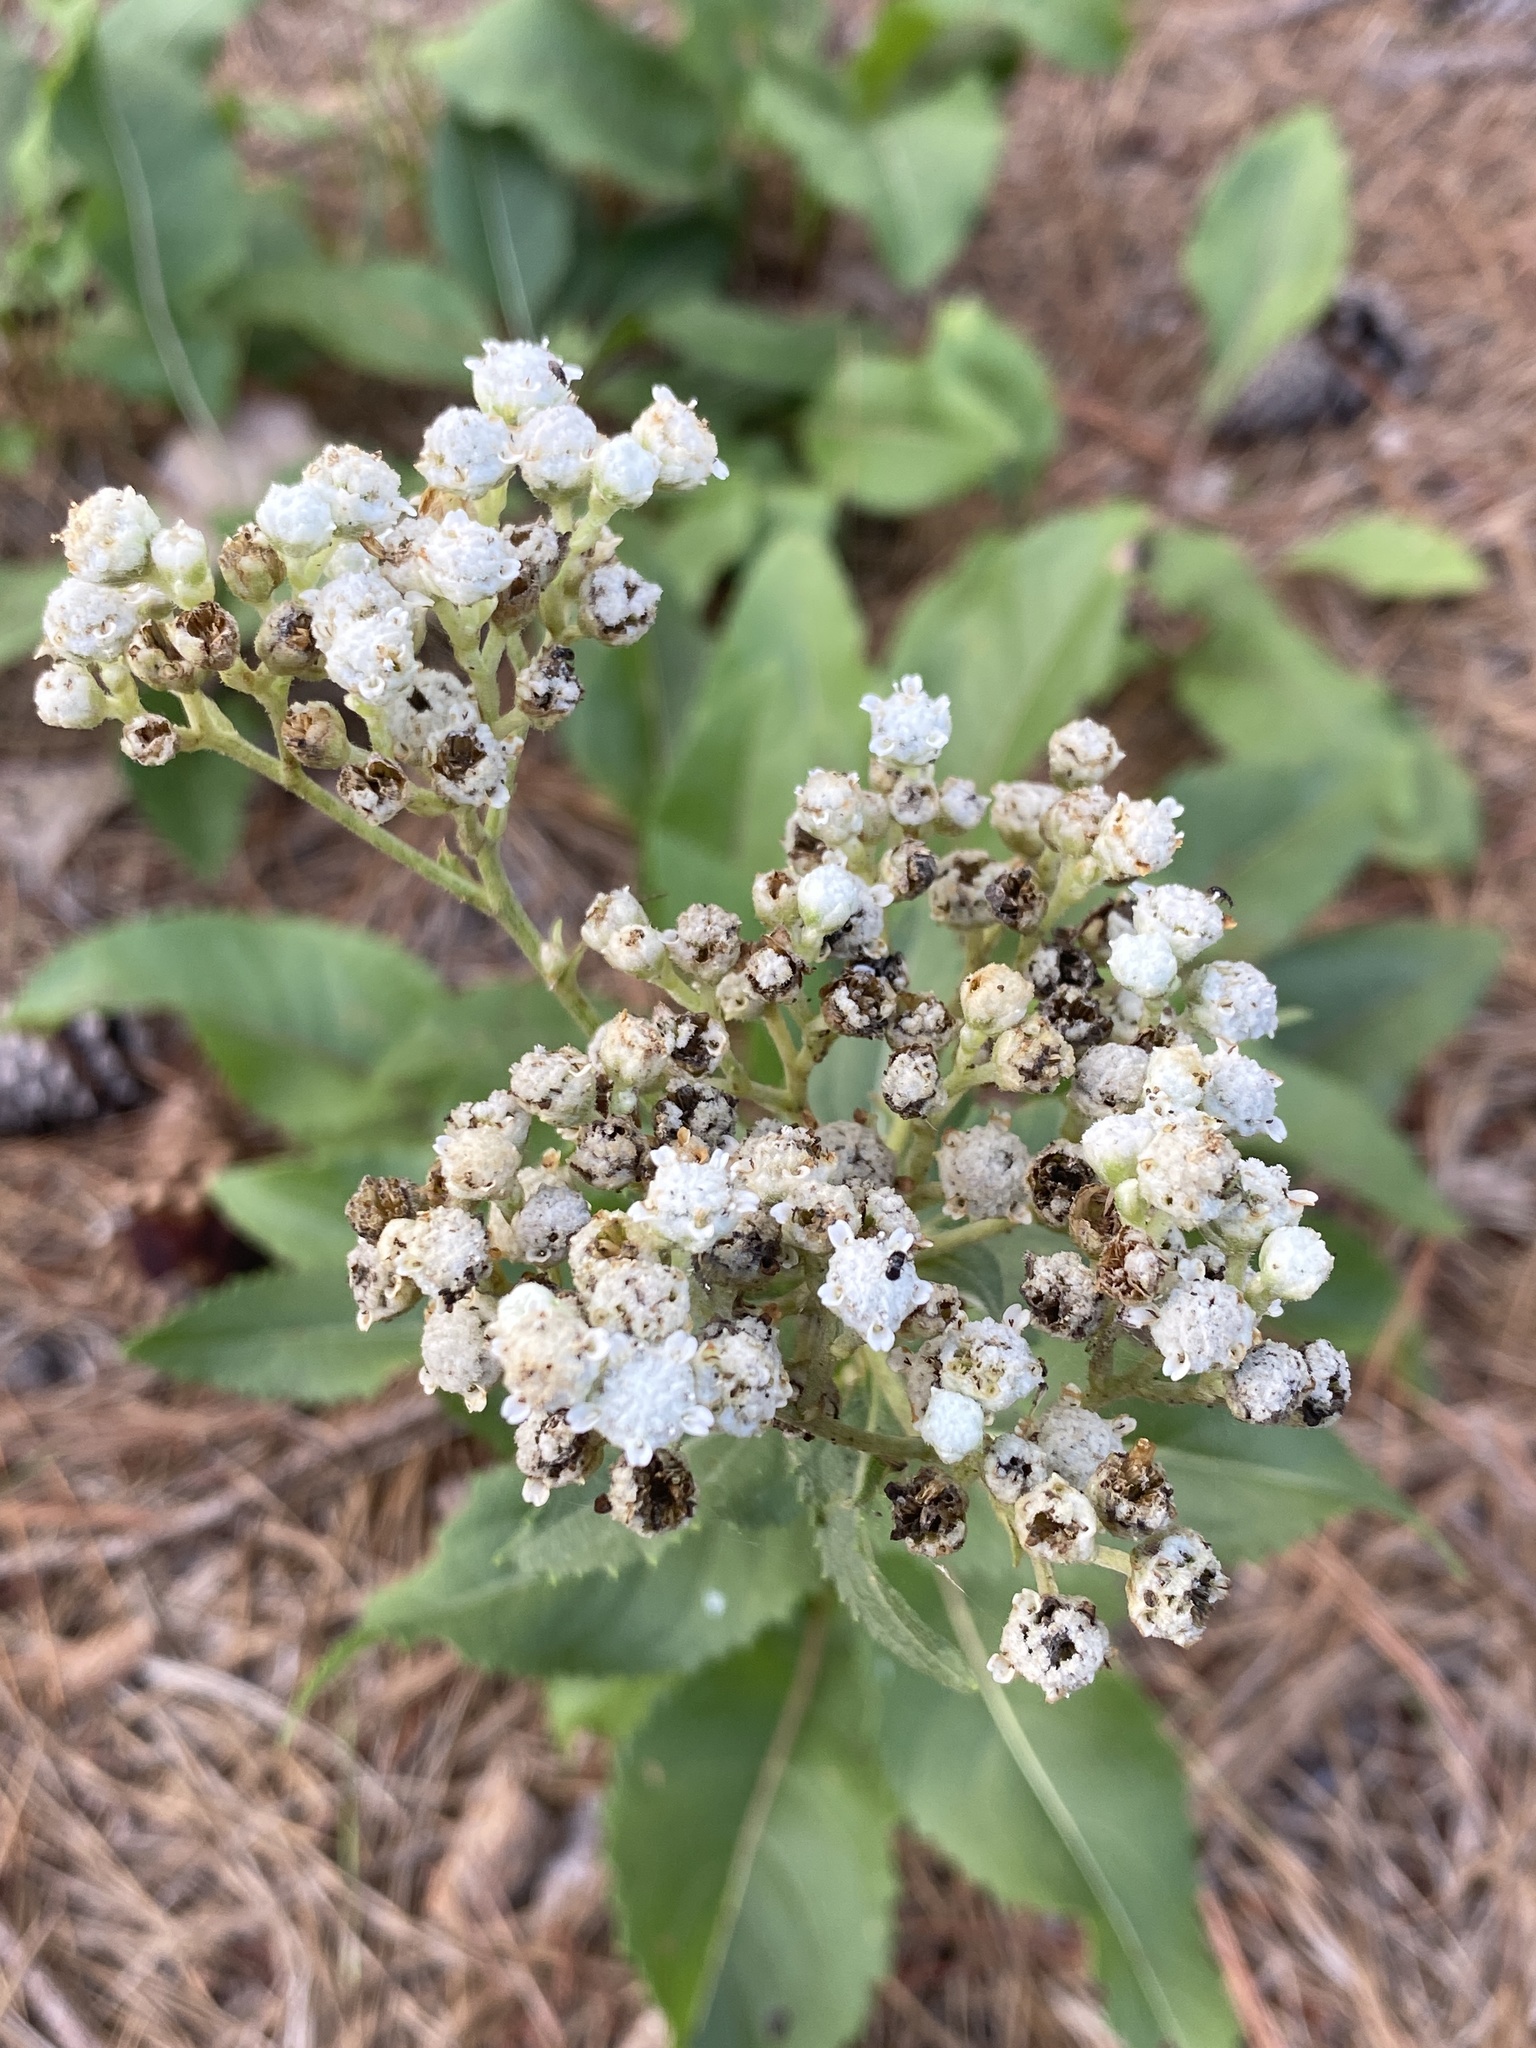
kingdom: Plantae
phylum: Tracheophyta
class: Magnoliopsida
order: Asterales
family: Asteraceae
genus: Parthenium
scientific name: Parthenium integrifolium
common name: American feverfew
